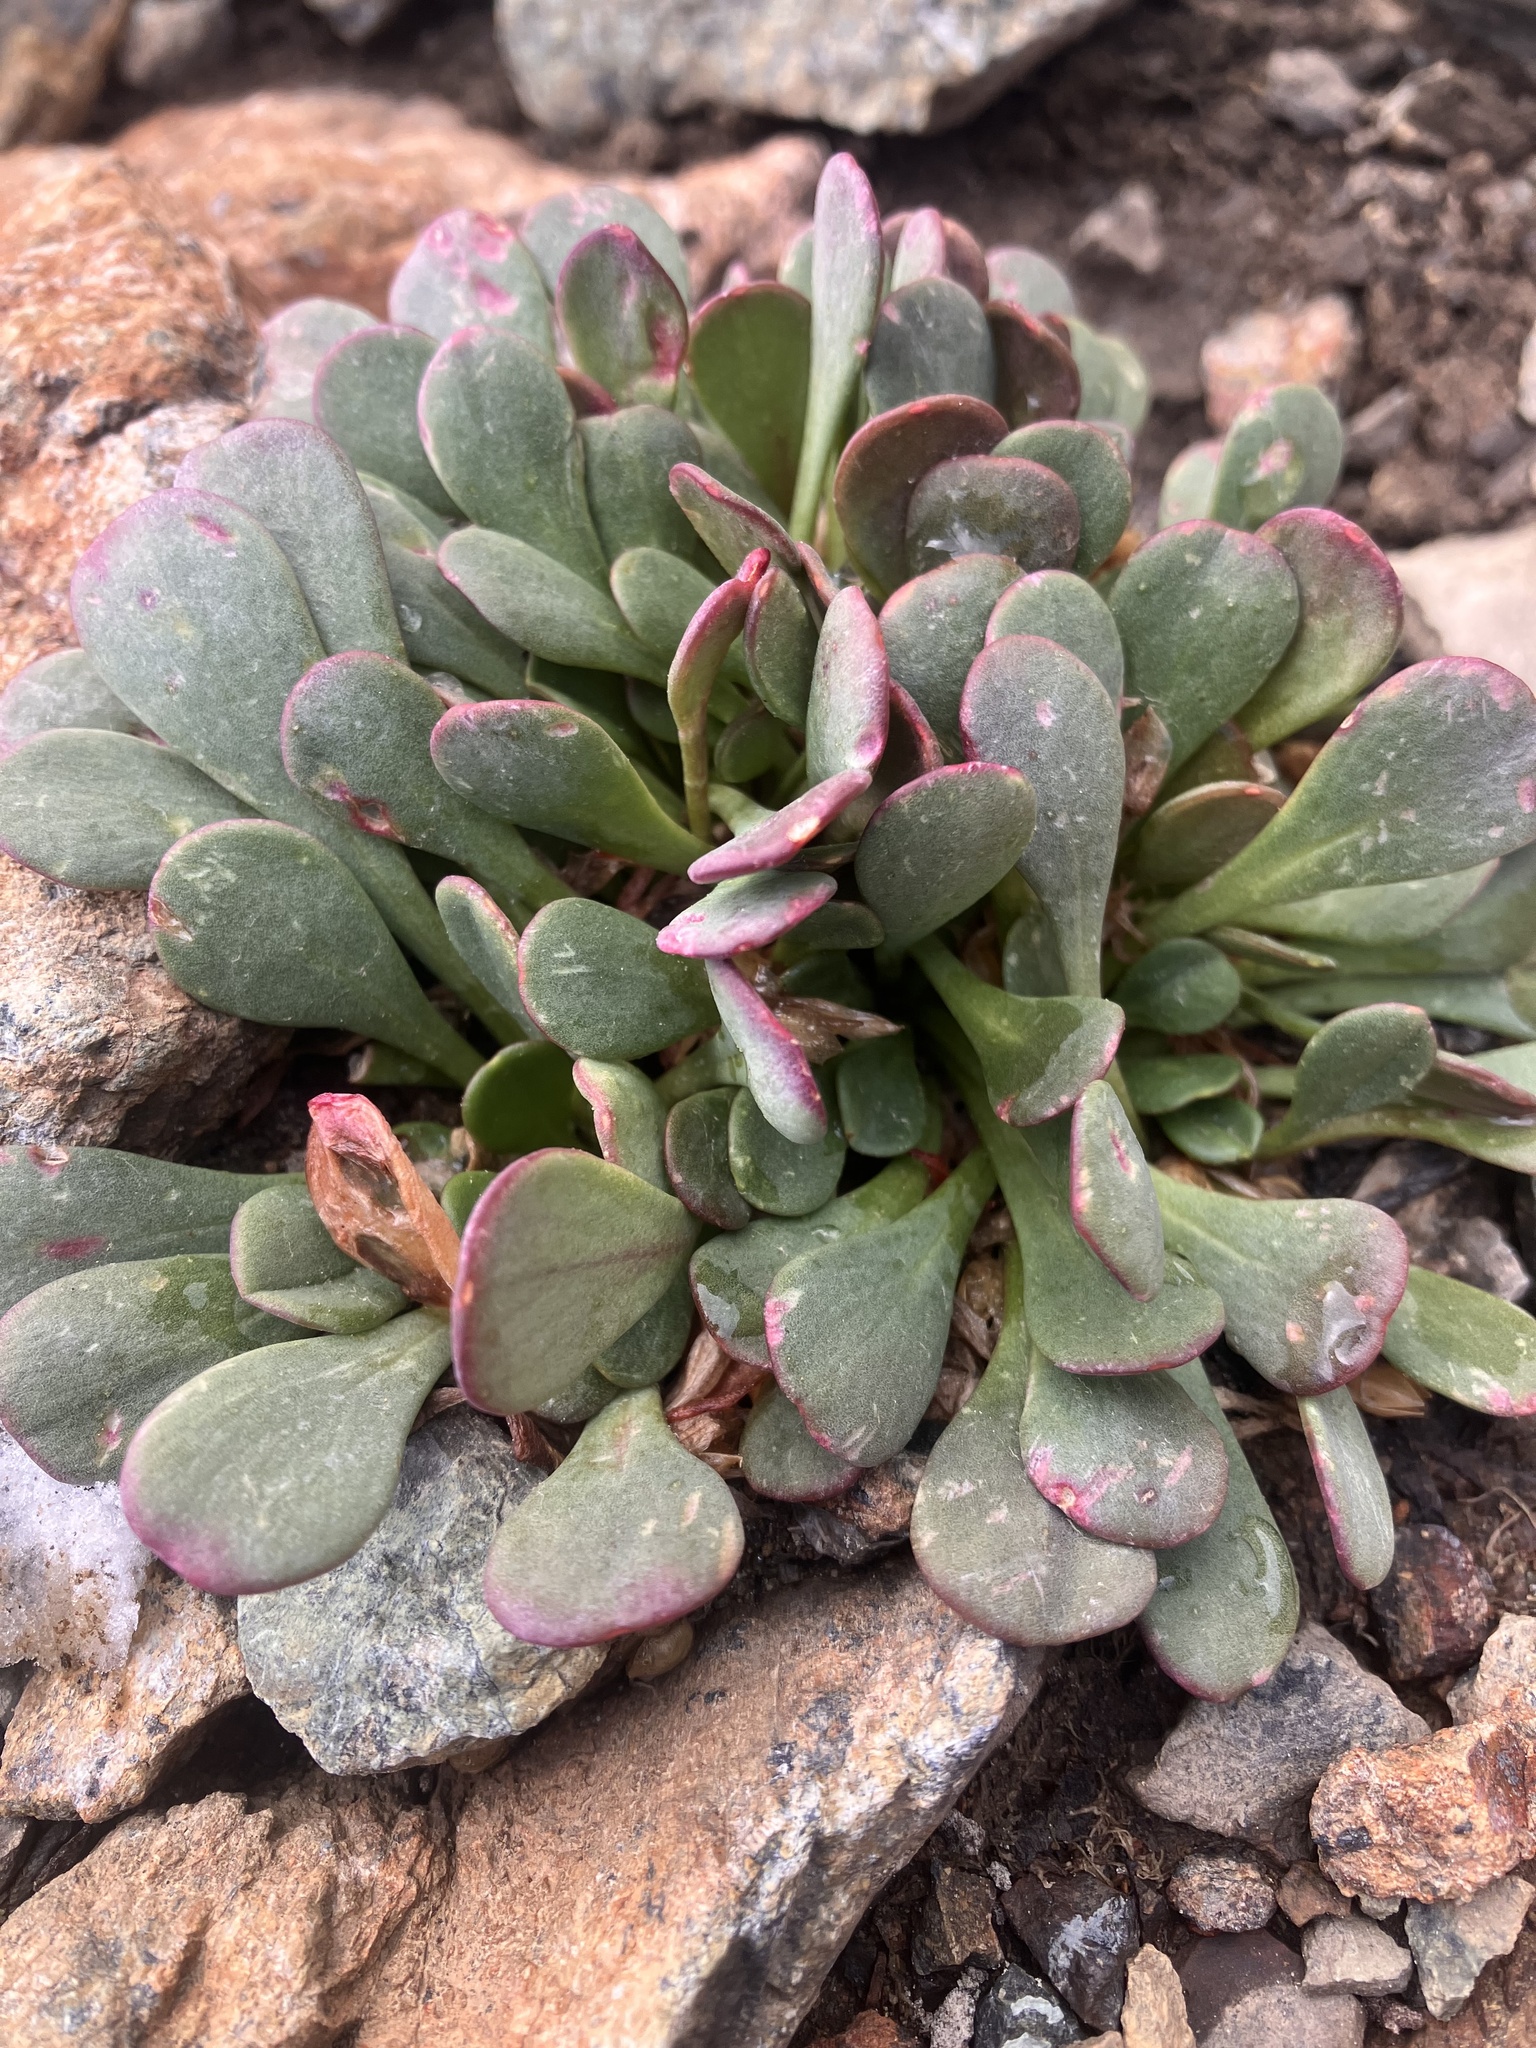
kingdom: Plantae
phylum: Tracheophyta
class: Magnoliopsida
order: Caryophyllales
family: Montiaceae
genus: Claytonia
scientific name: Claytonia megarhiza
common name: Alpine spring beauty
